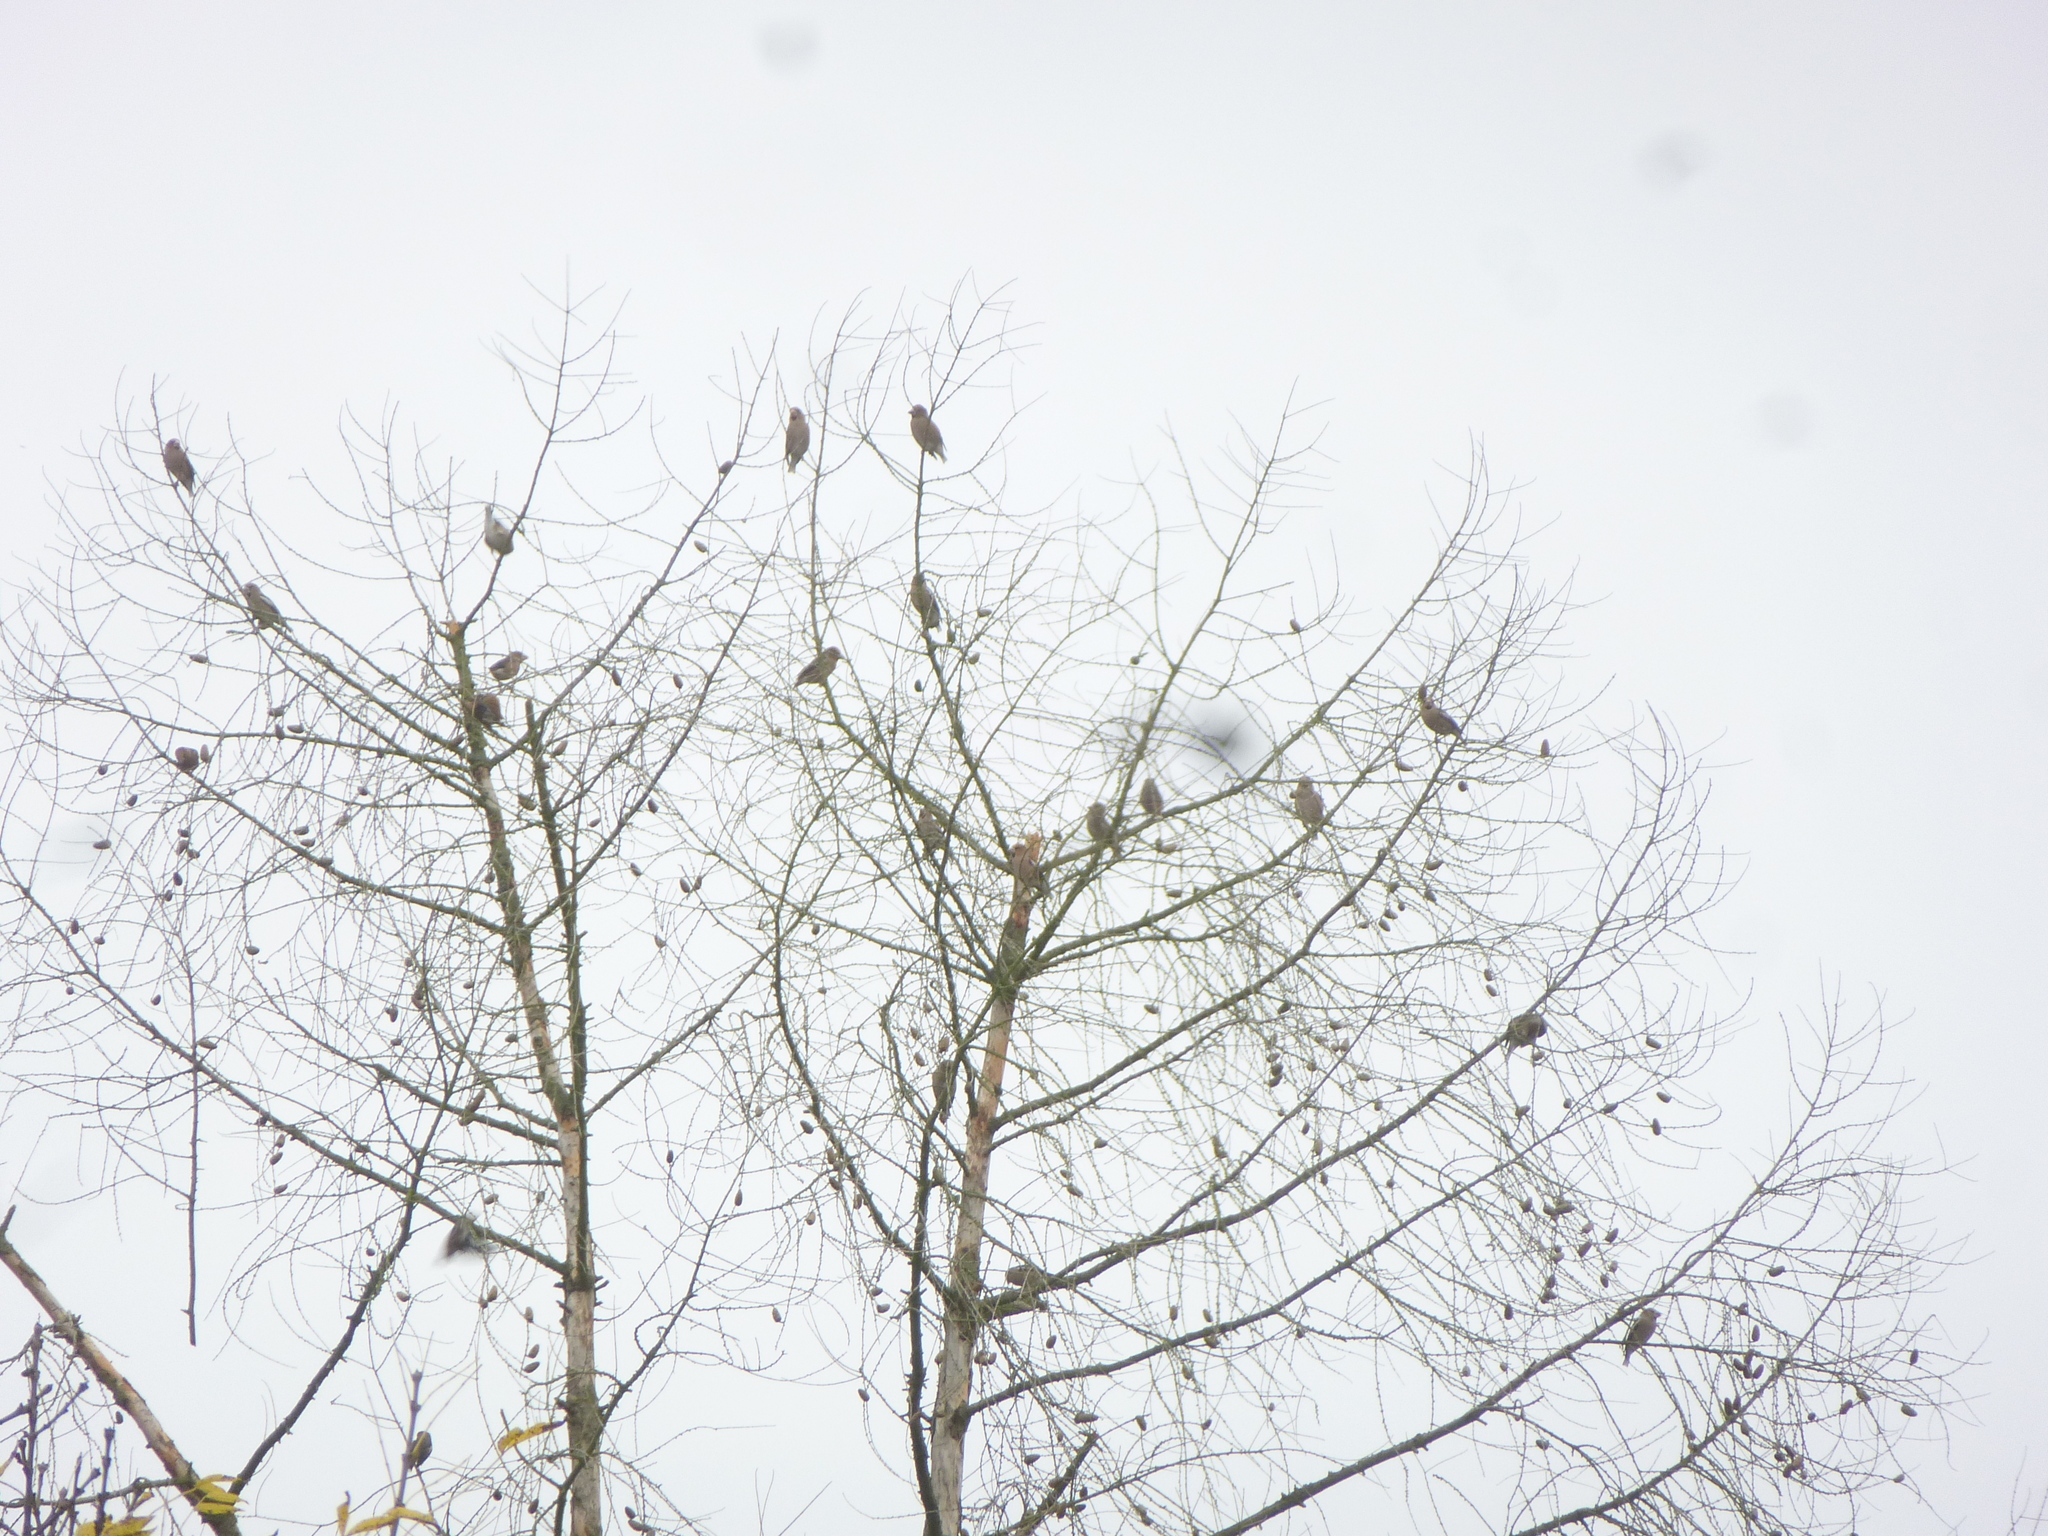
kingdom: Animalia
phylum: Chordata
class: Aves
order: Passeriformes
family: Fringillidae
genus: Coccothraustes
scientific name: Coccothraustes coccothraustes
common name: Hawfinch
